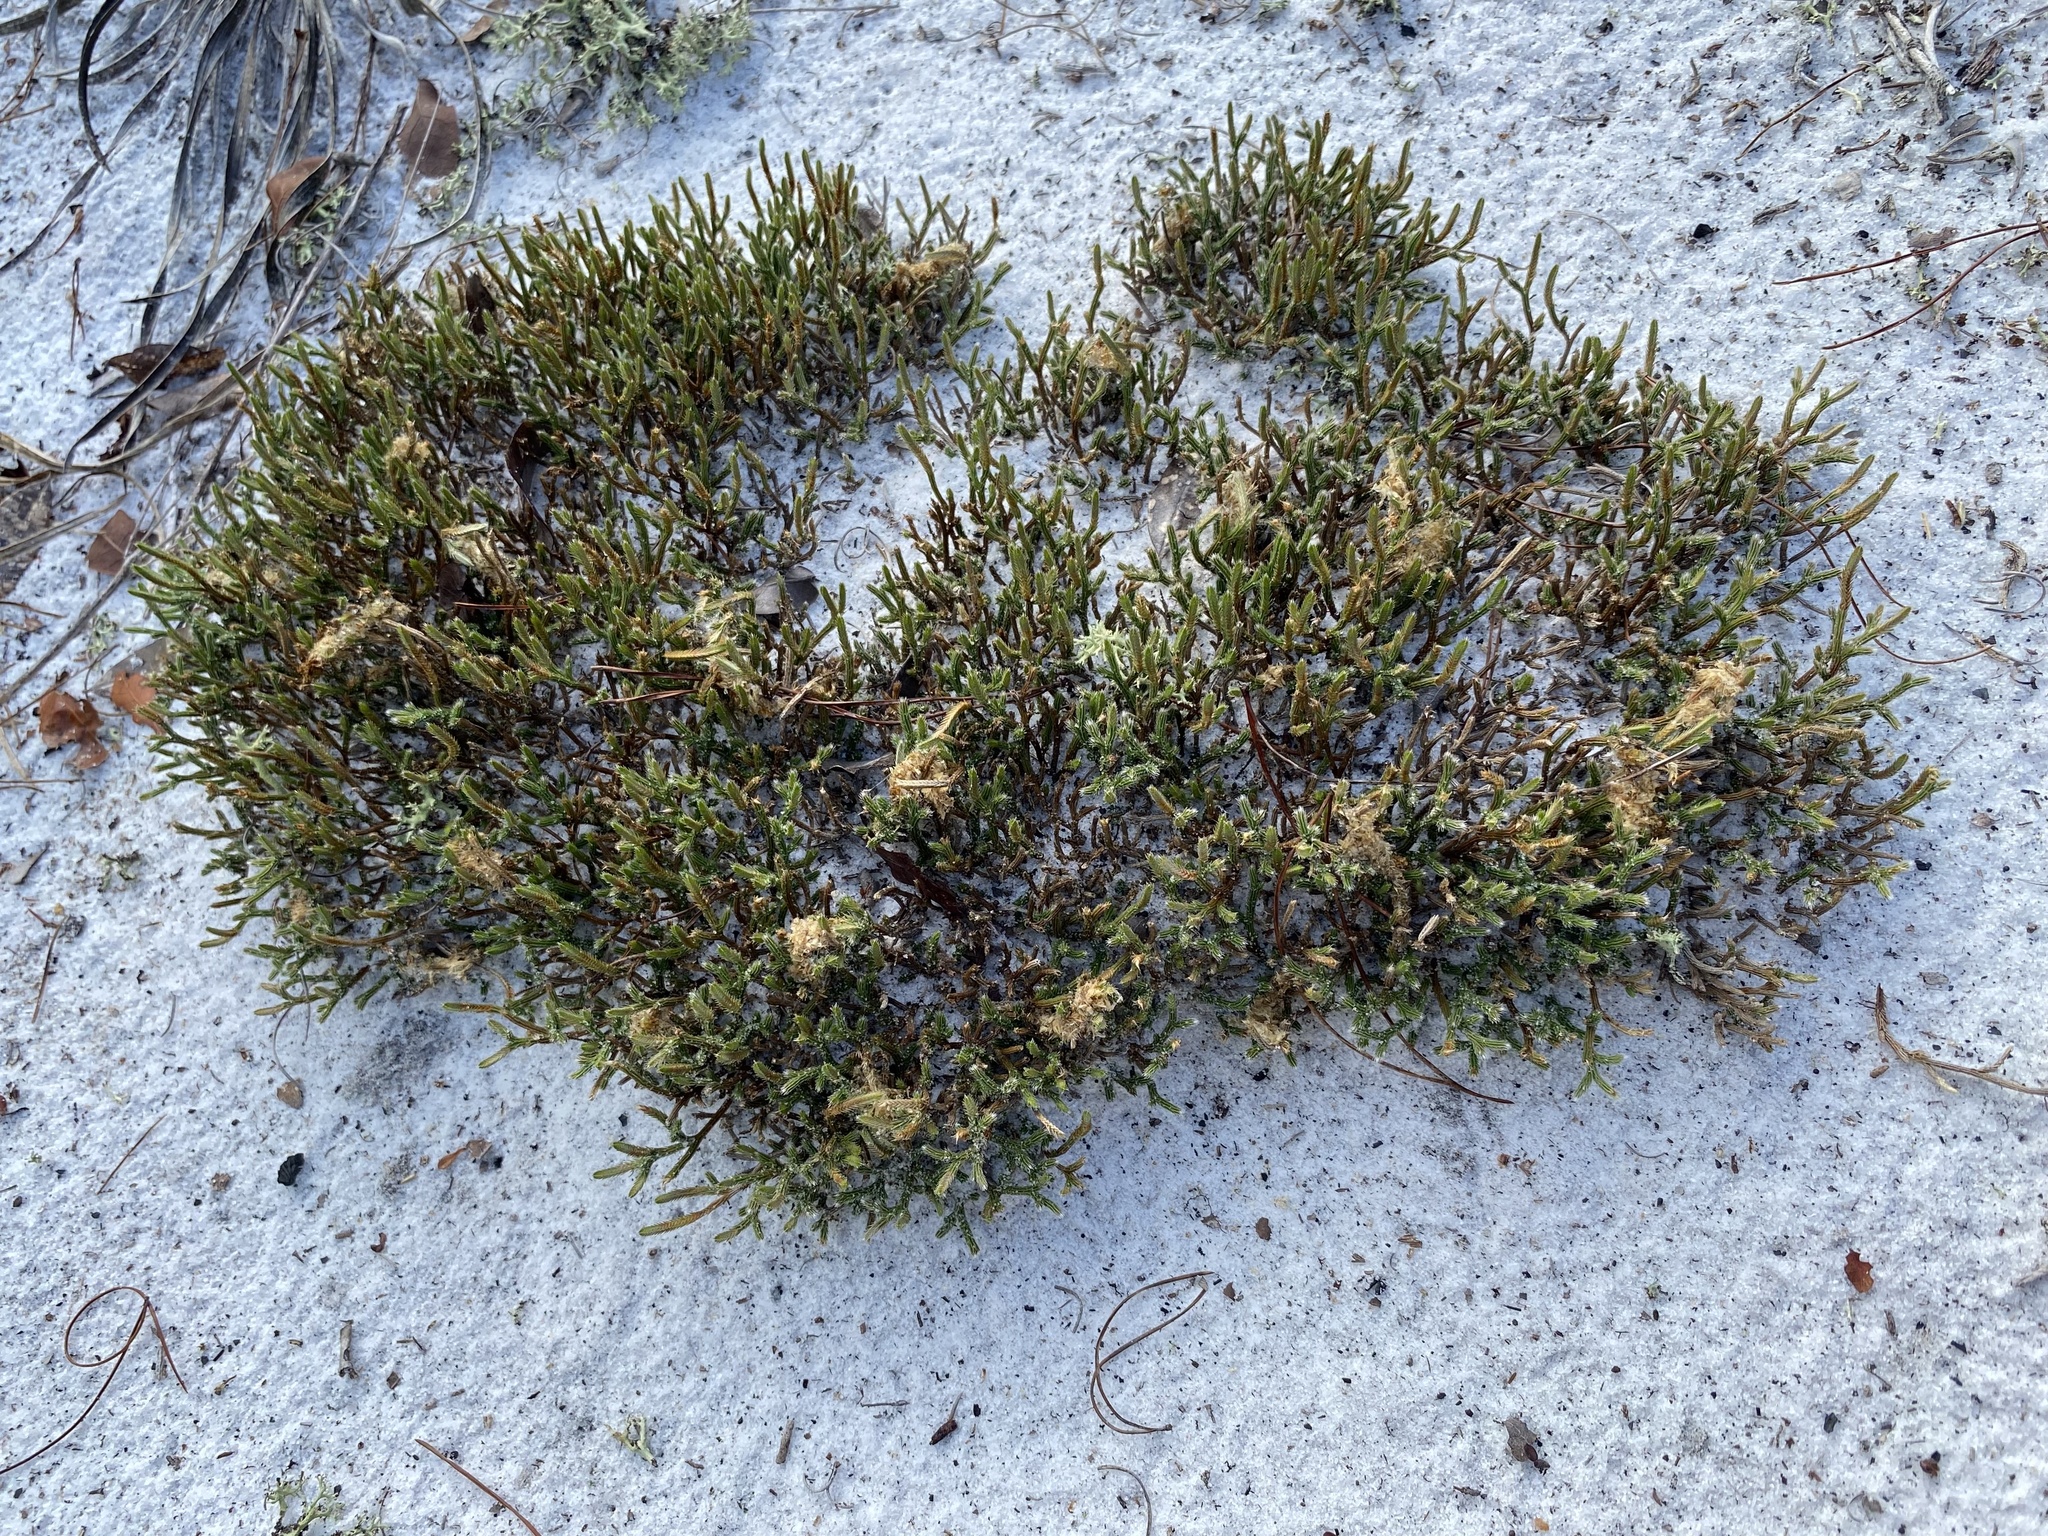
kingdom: Plantae
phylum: Tracheophyta
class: Lycopodiopsida
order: Selaginellales
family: Selaginellaceae
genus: Selaginella
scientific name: Selaginella arenicola
